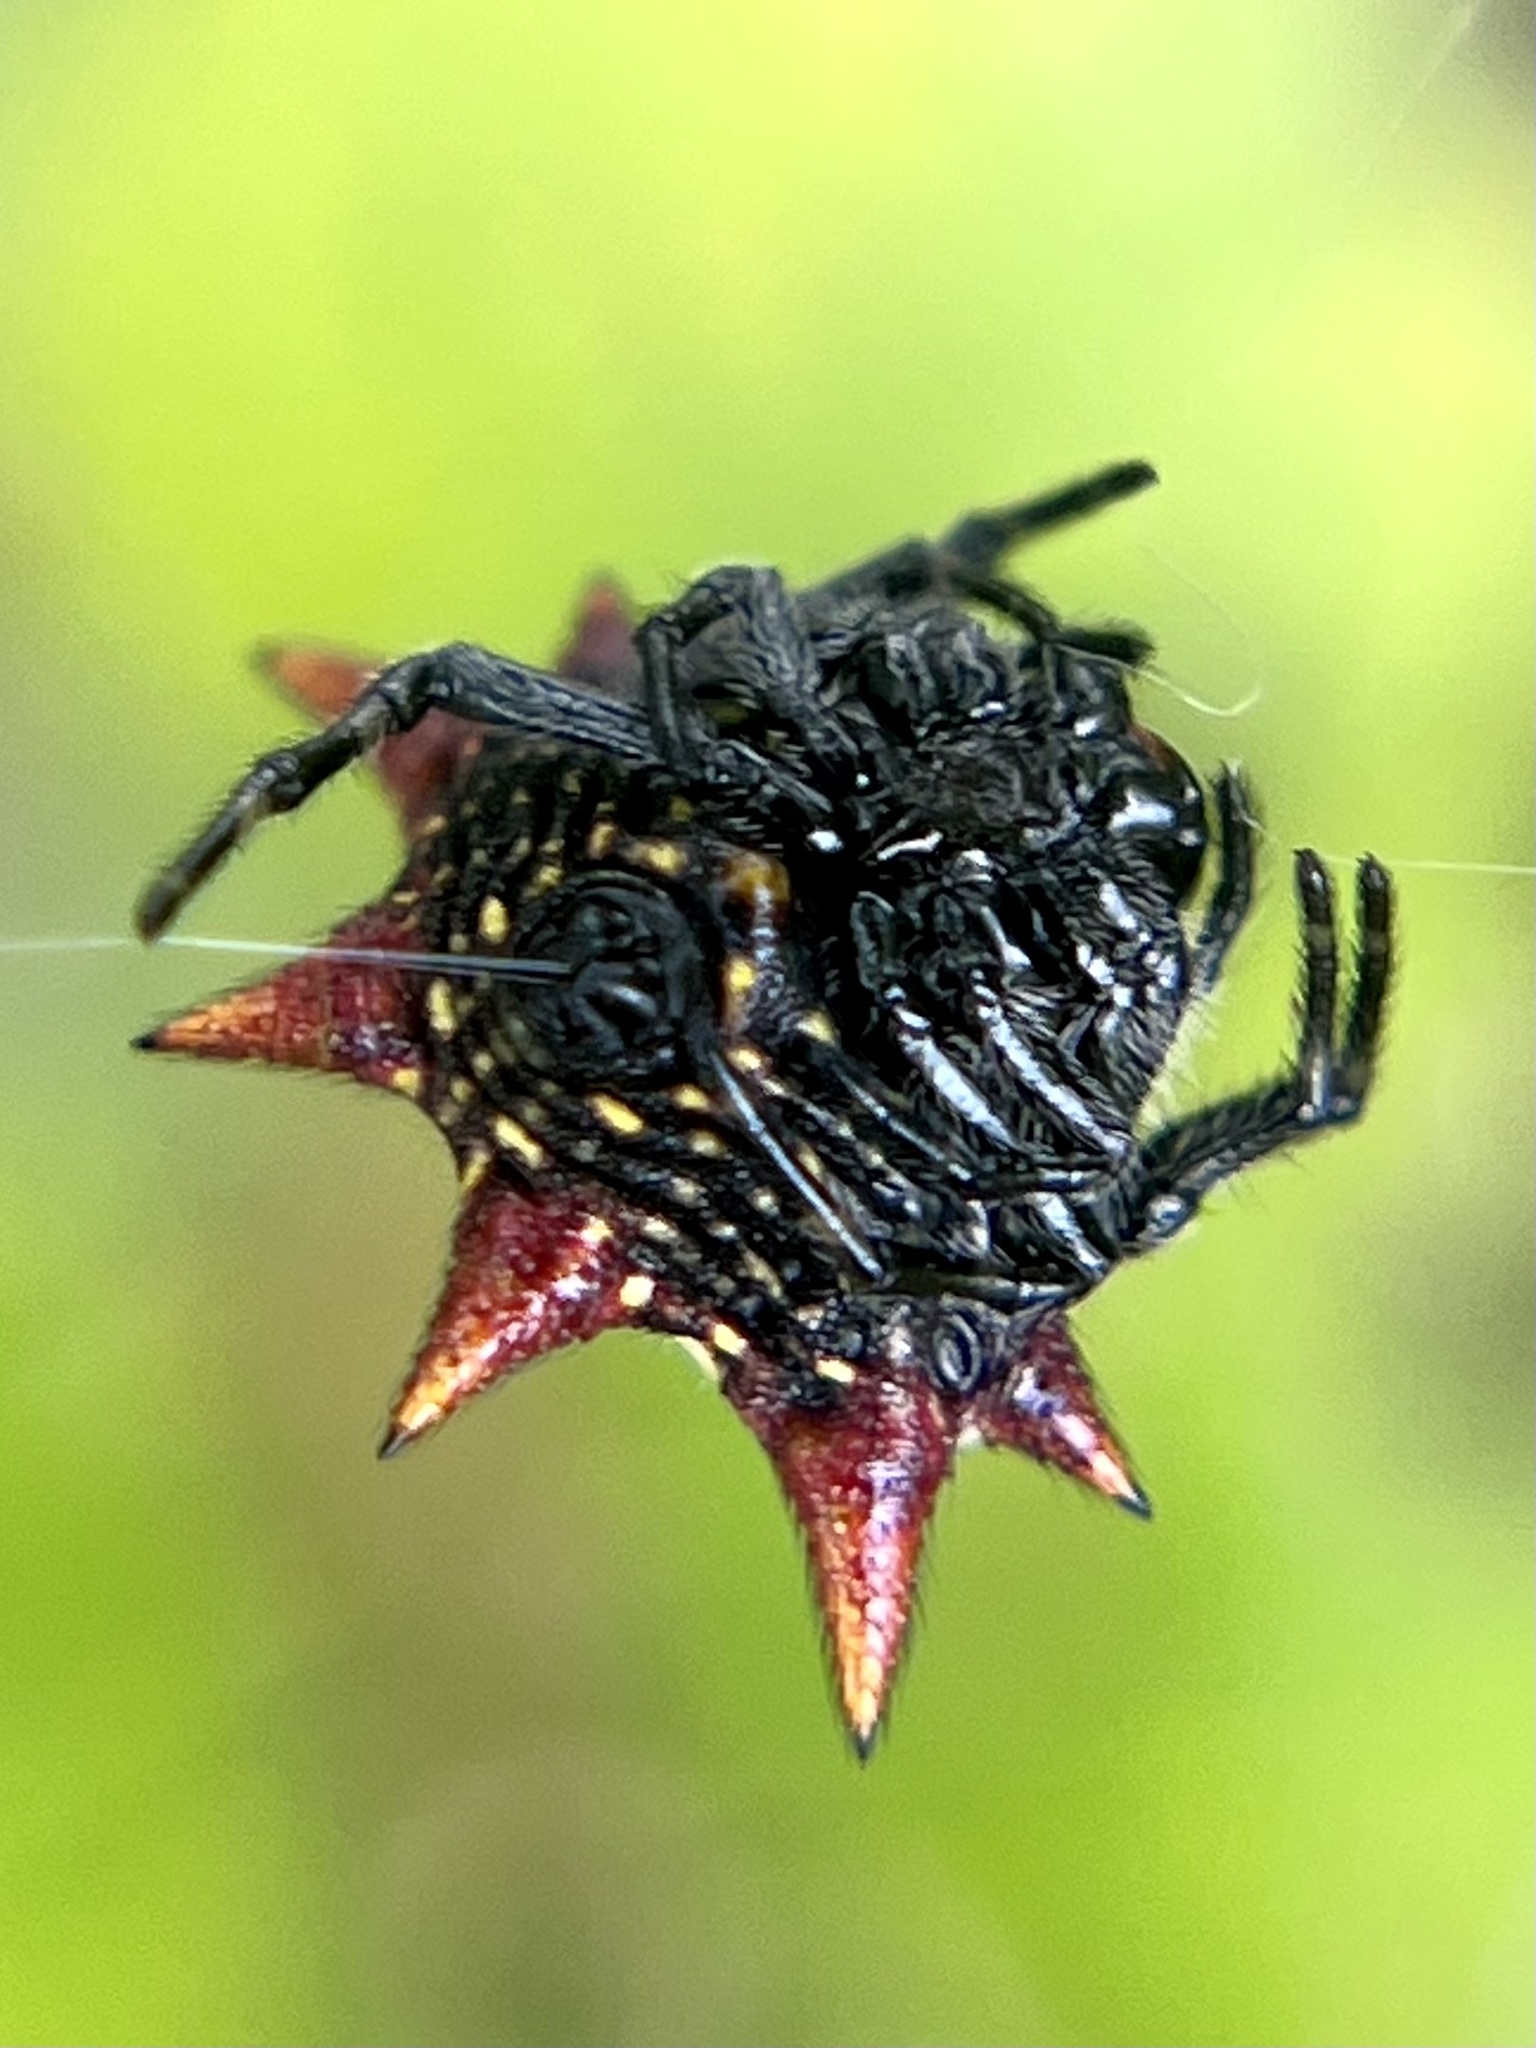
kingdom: Animalia
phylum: Arthropoda
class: Arachnida
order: Araneae
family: Araneidae
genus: Gasteracantha
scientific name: Gasteracantha cancriformis
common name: Orb weavers
